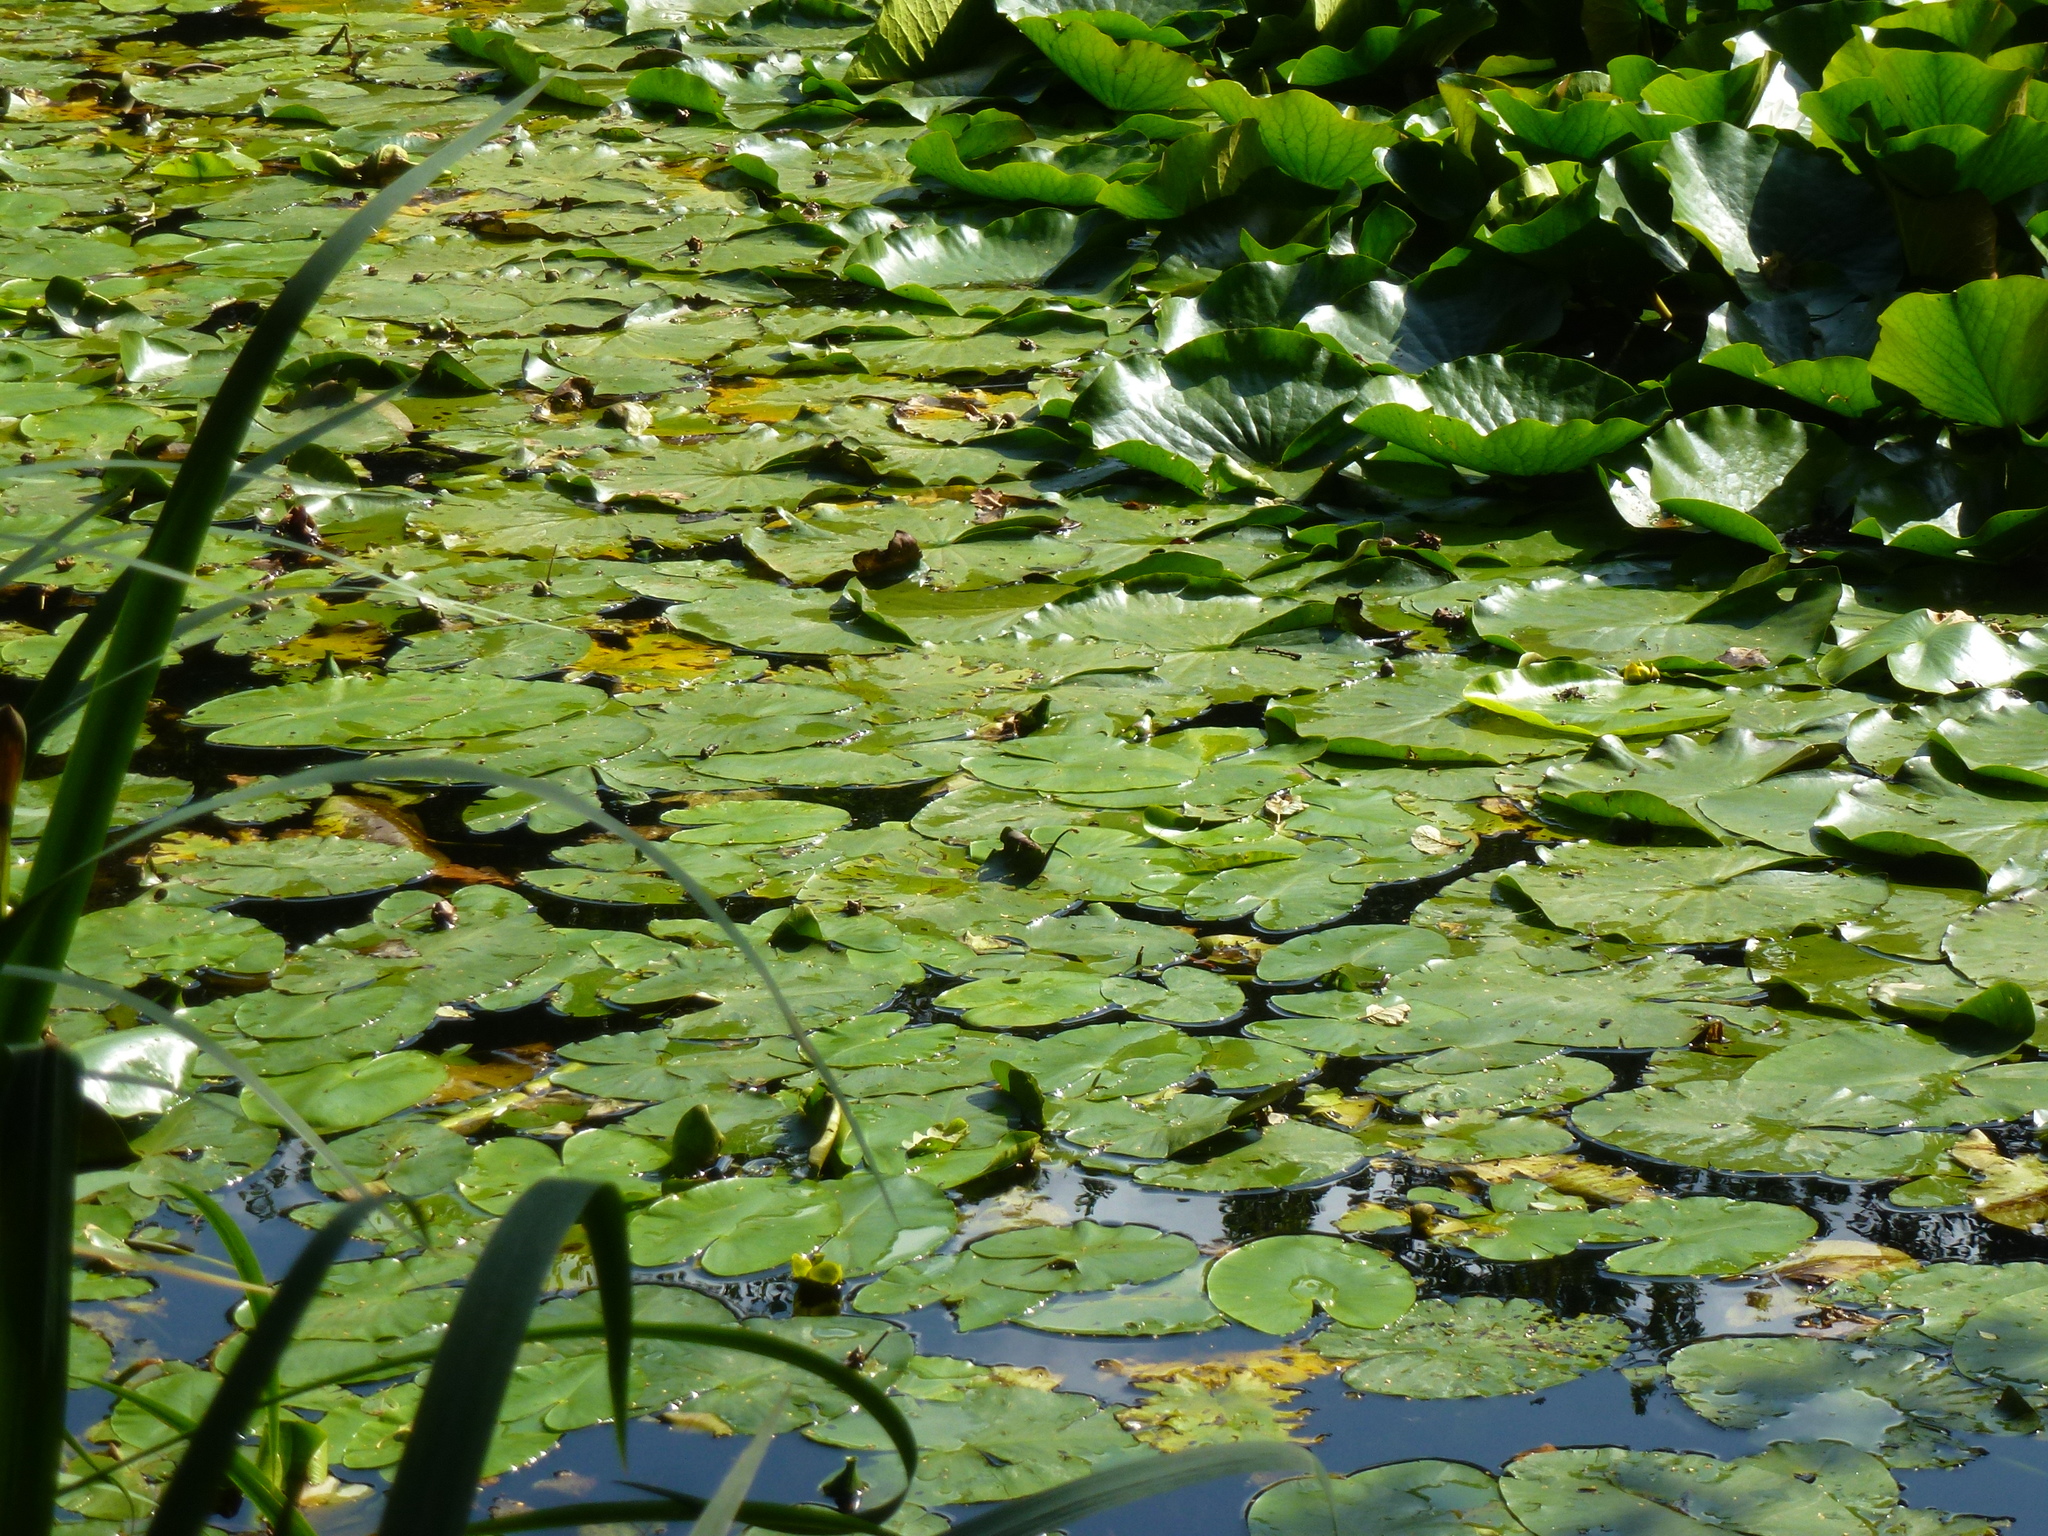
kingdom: Plantae
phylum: Tracheophyta
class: Magnoliopsida
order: Nymphaeales
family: Nymphaeaceae
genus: Nuphar
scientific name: Nuphar lutea
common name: Yellow water-lily
